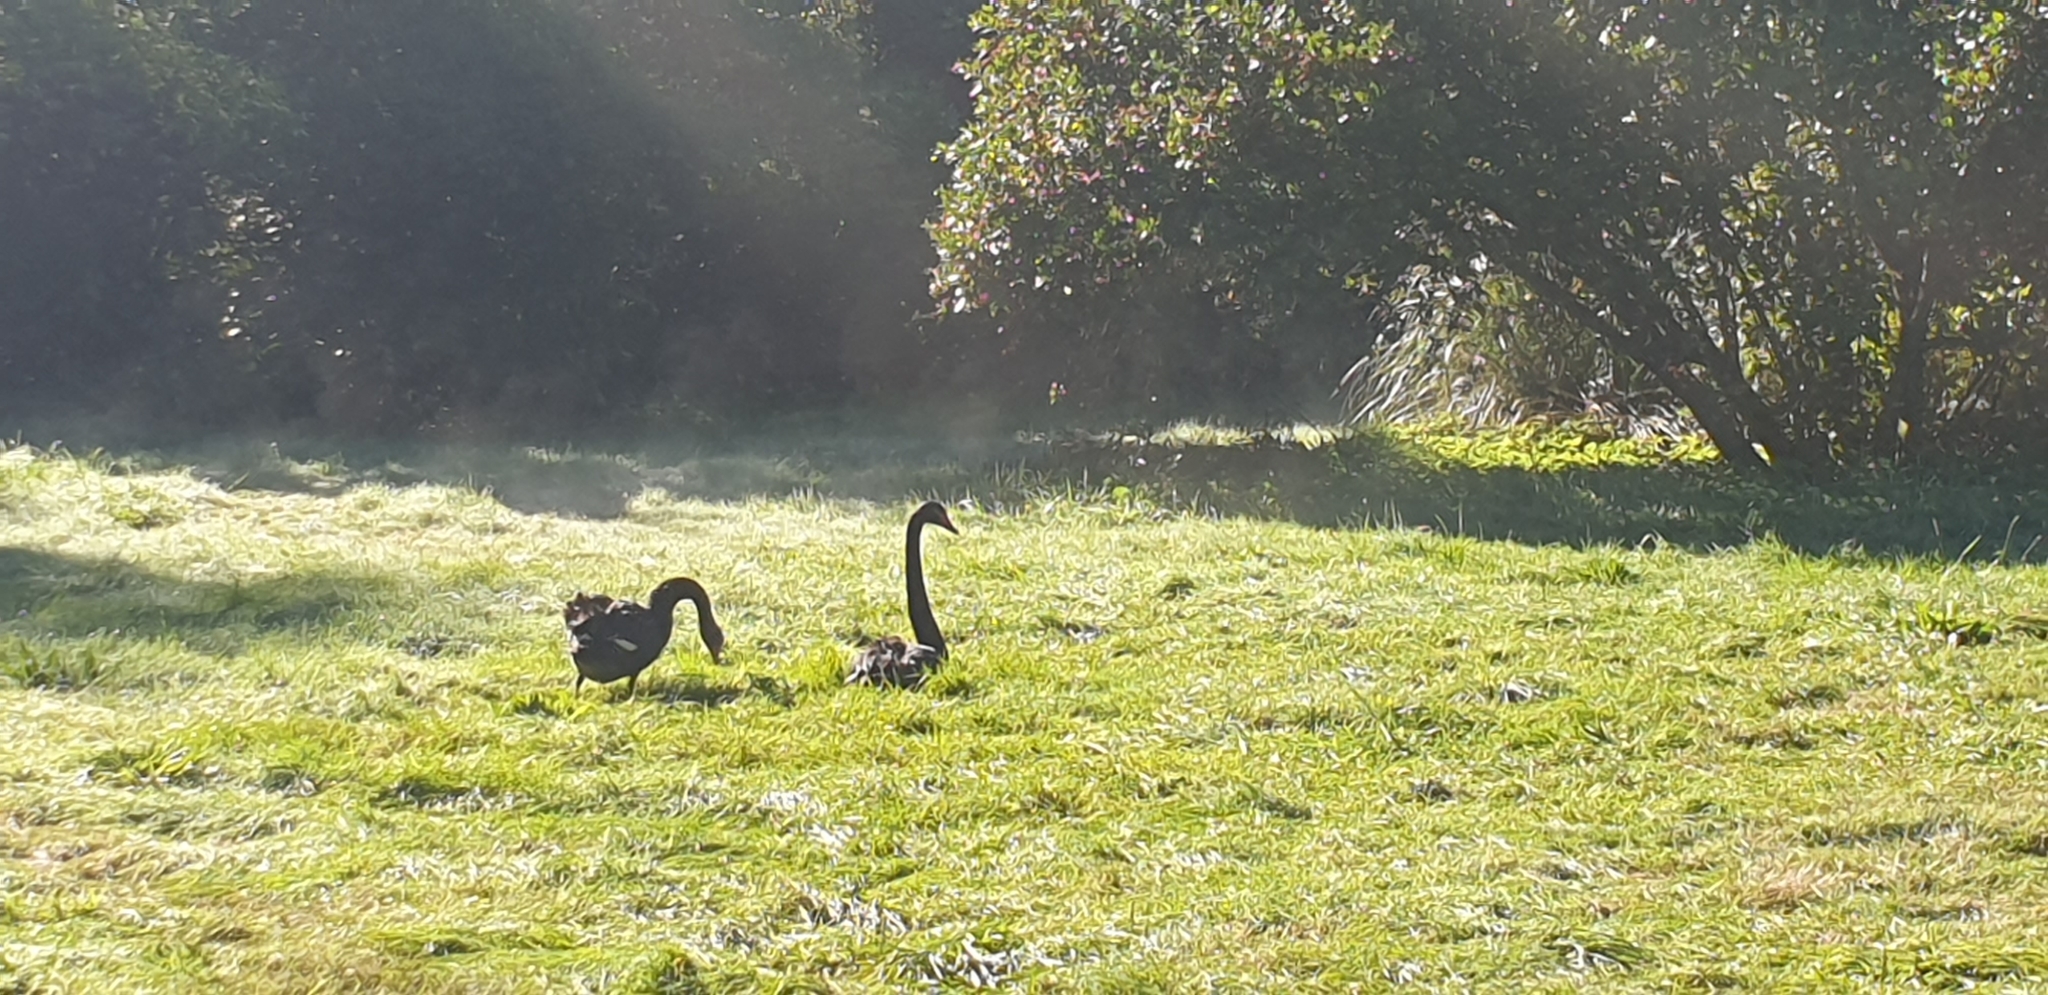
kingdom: Animalia
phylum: Chordata
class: Aves
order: Anseriformes
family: Anatidae
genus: Cygnus
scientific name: Cygnus atratus
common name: Black swan
